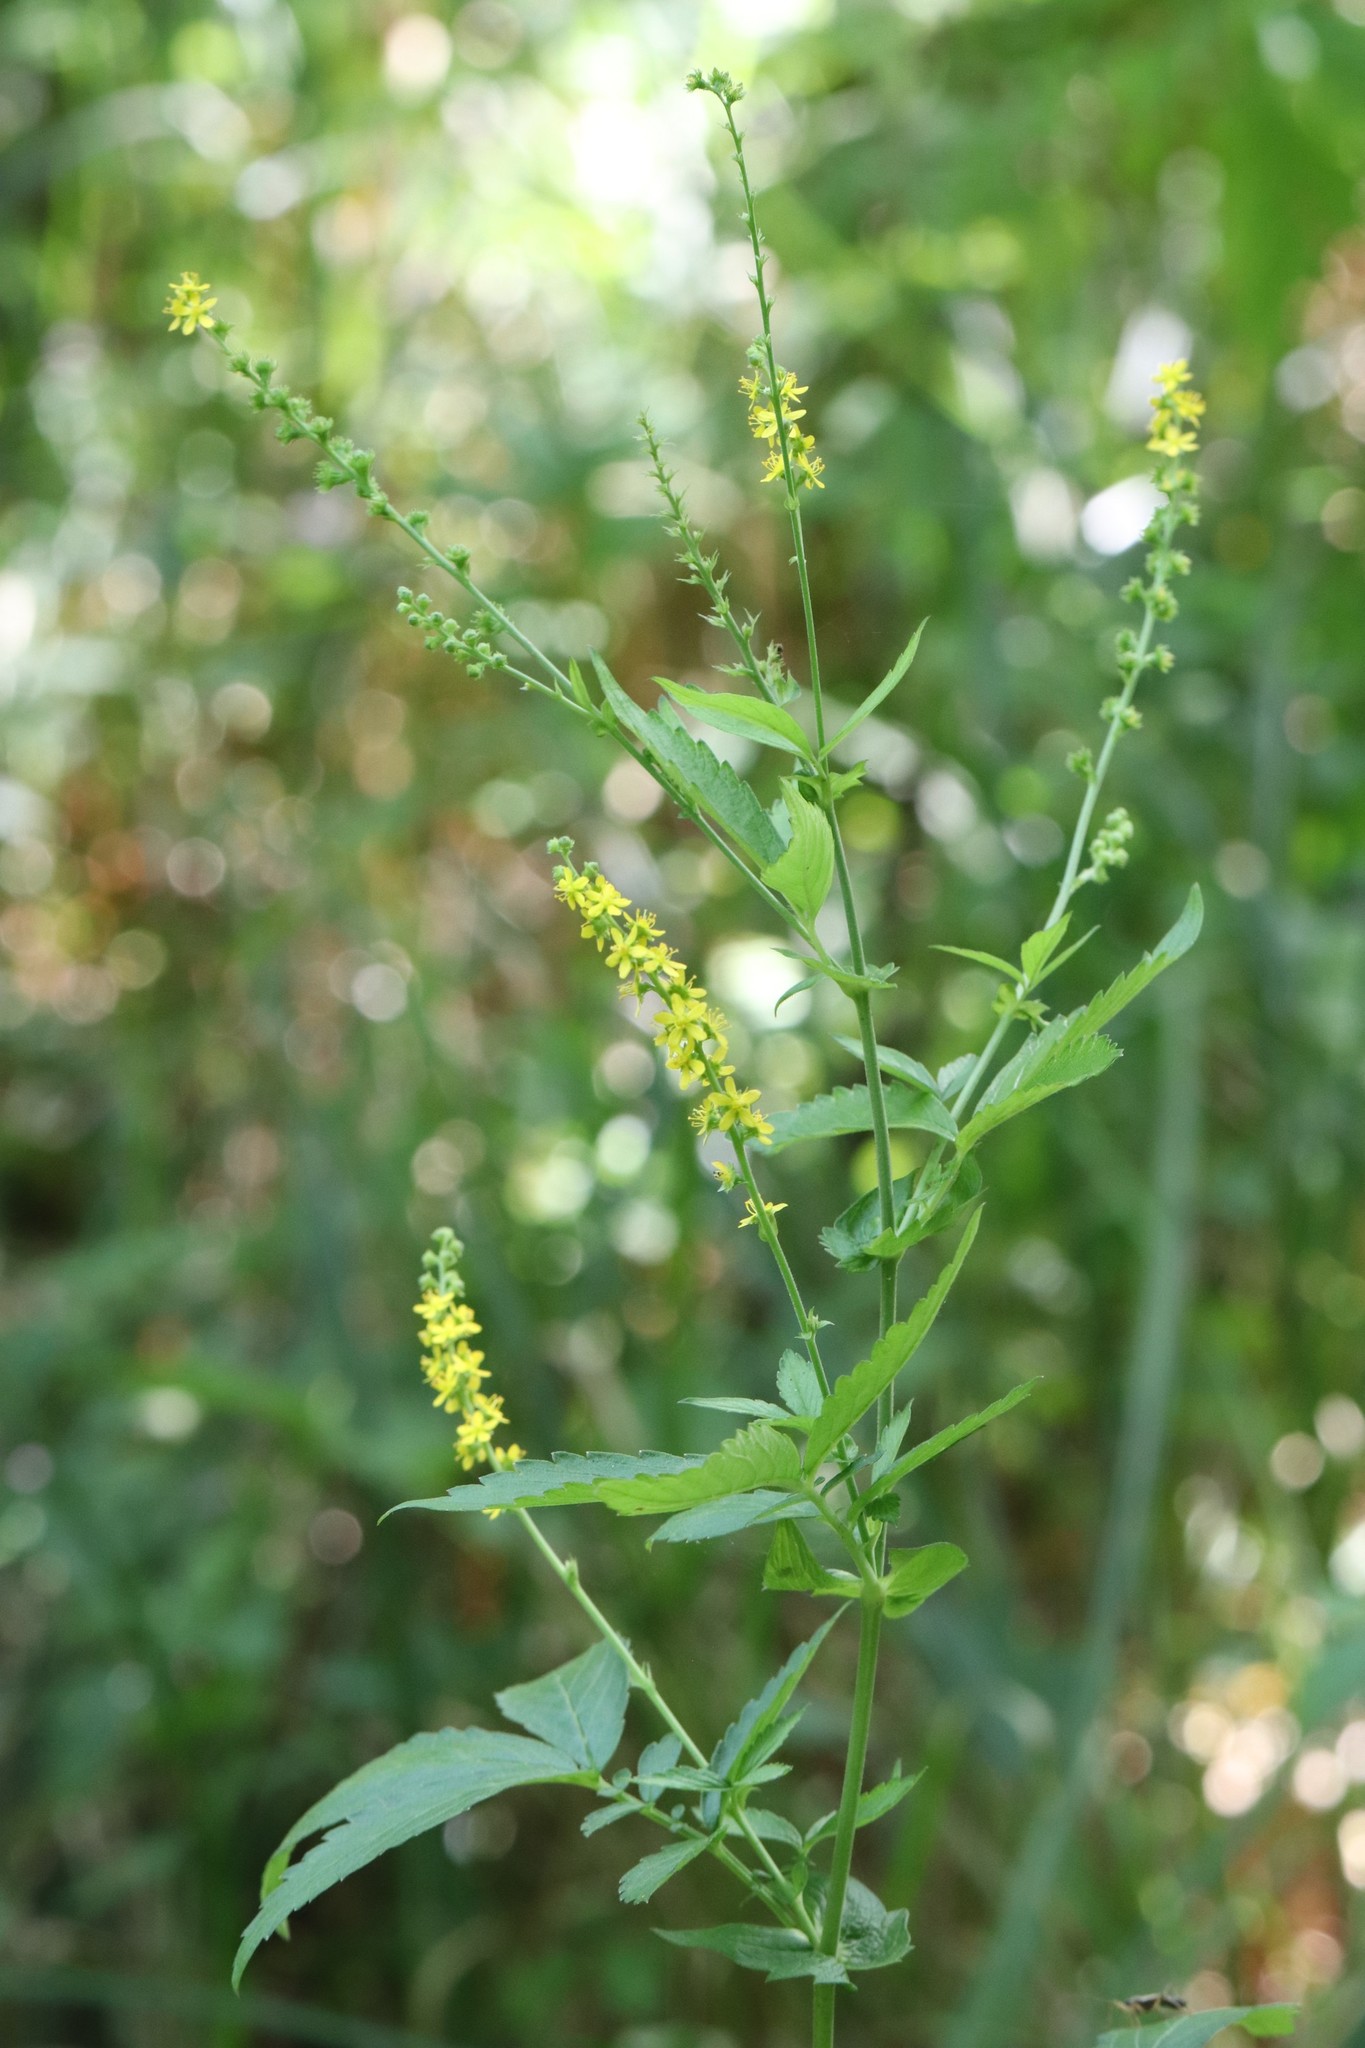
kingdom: Plantae
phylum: Tracheophyta
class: Magnoliopsida
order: Rosales
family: Rosaceae
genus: Agrimonia
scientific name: Agrimonia striata
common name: Britton's agrimony
